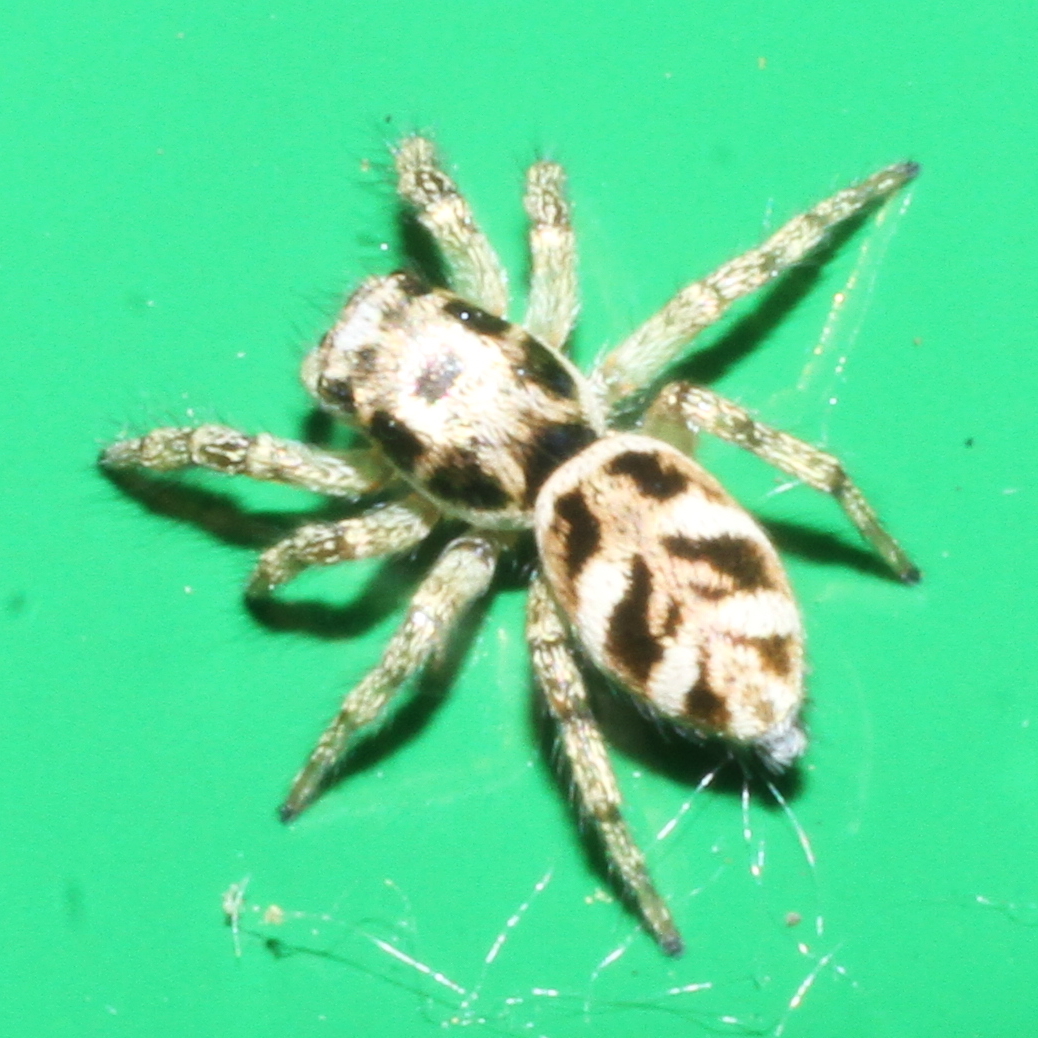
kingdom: Animalia
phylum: Arthropoda
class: Arachnida
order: Araneae
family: Salticidae
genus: Salticus
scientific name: Salticus scenicus
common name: Zebra jumper
